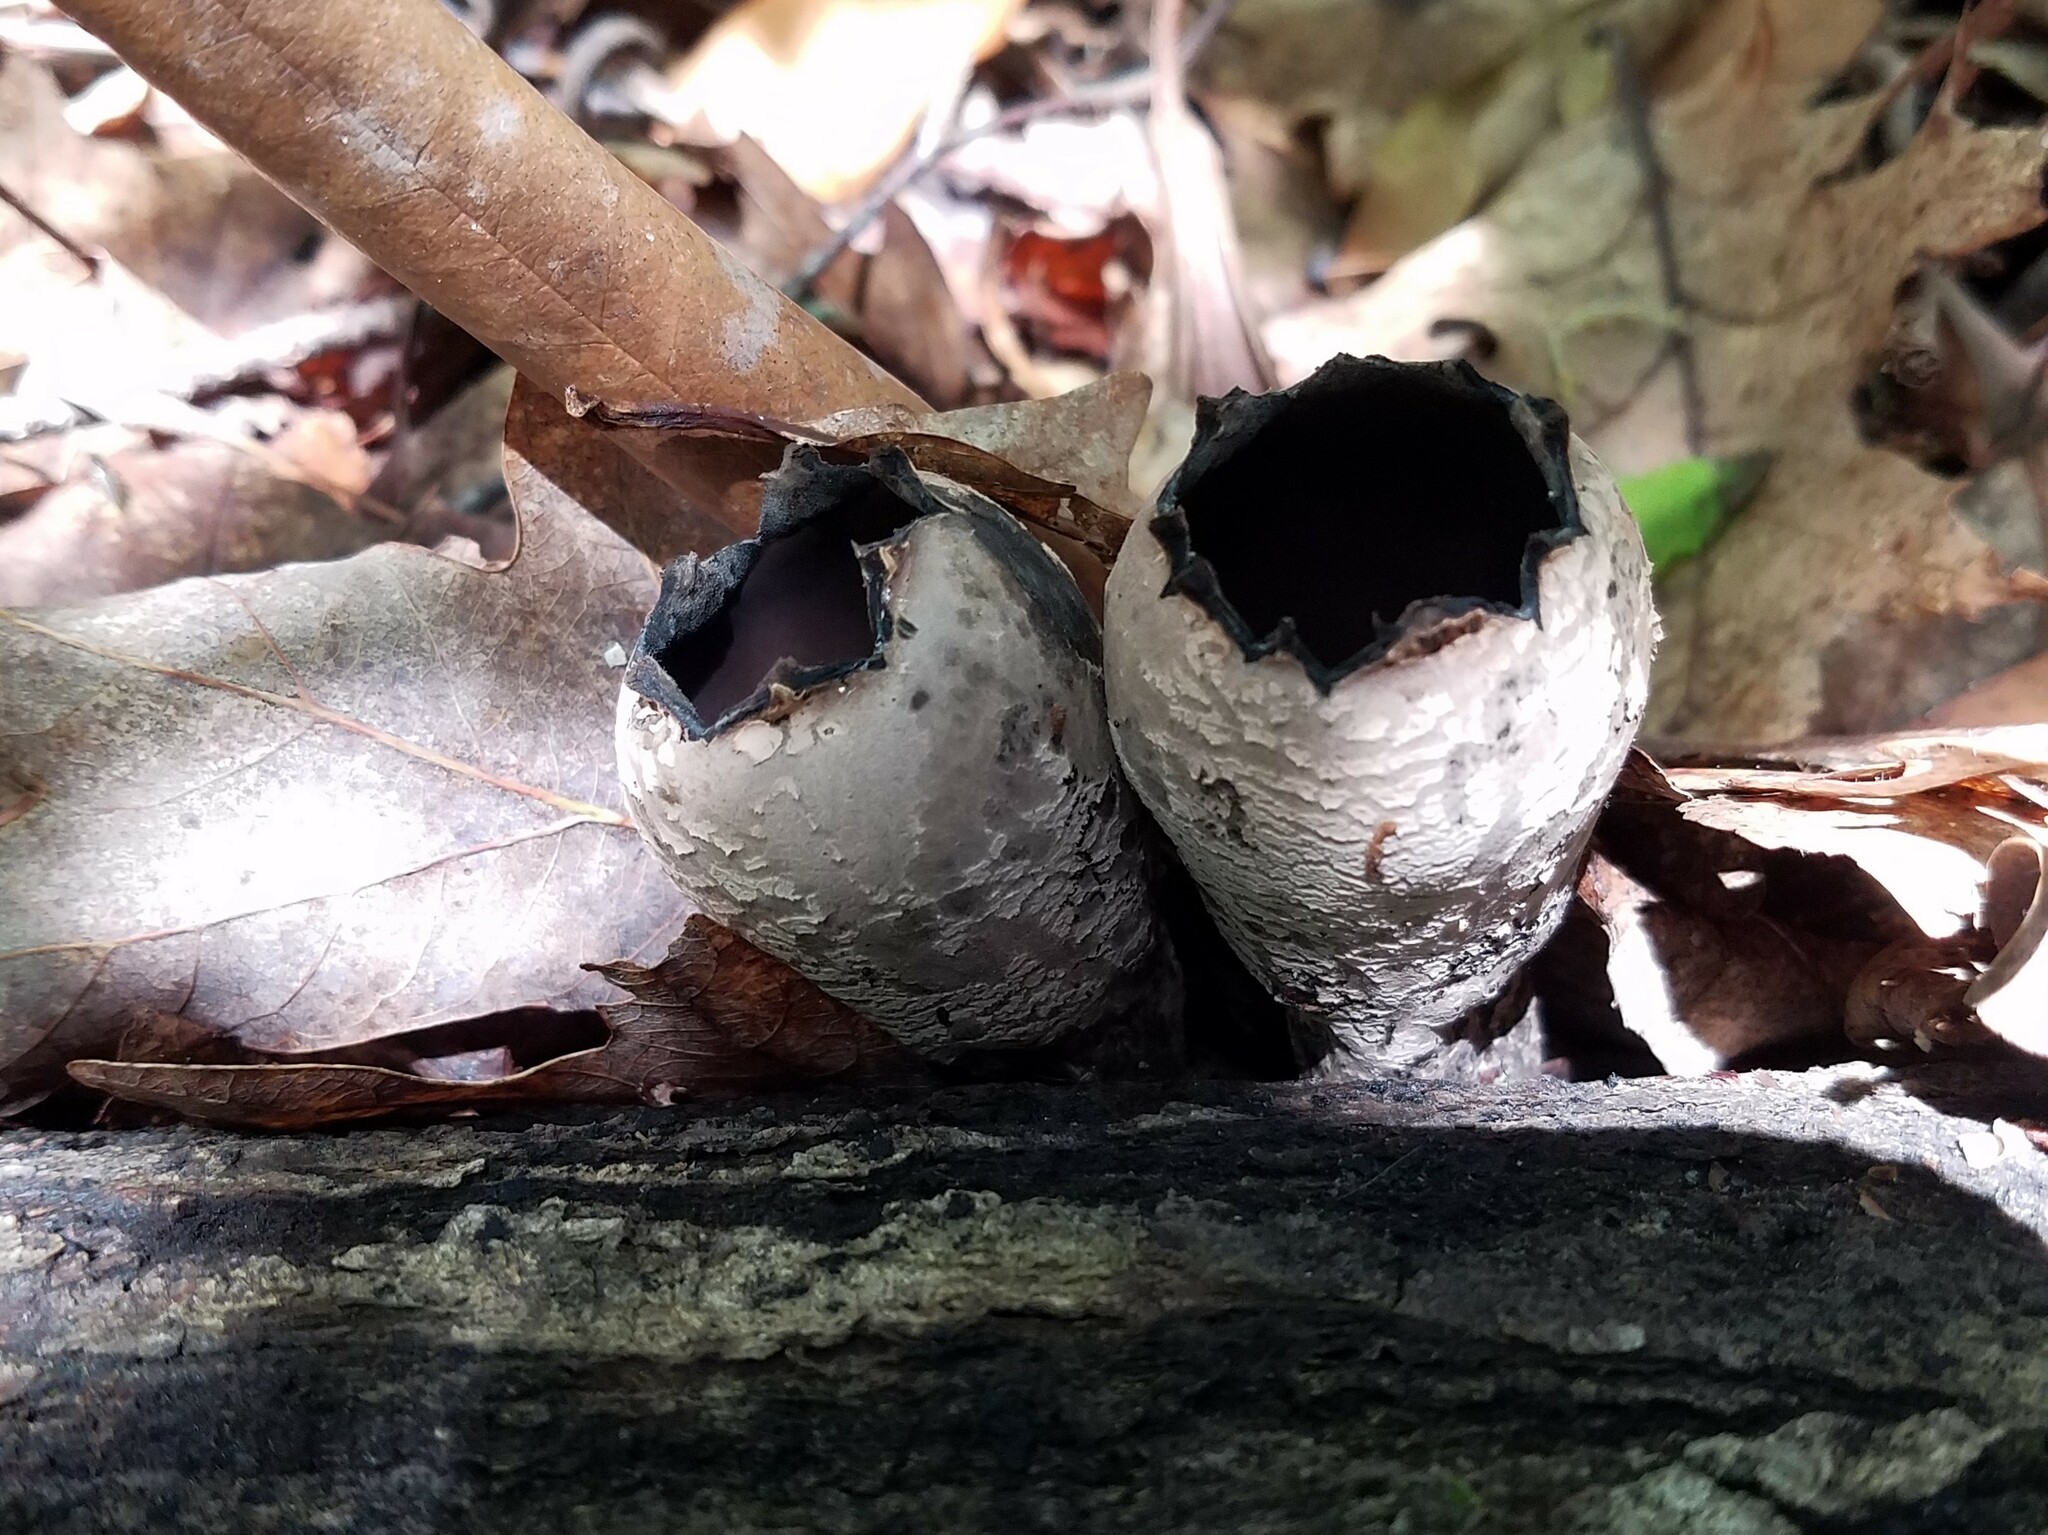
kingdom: Fungi
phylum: Ascomycota
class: Pezizomycetes
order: Pezizales
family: Sarcosomataceae
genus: Urnula
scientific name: Urnula craterium
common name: Devil's urn
